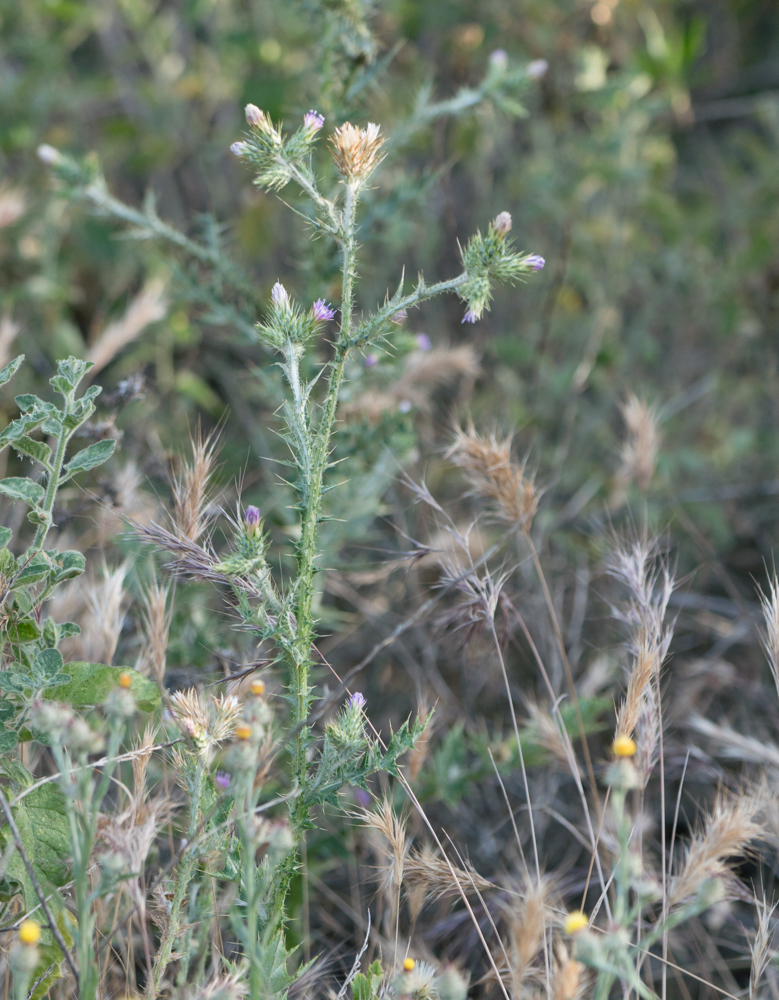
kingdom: Plantae
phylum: Tracheophyta
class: Magnoliopsida
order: Asterales
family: Asteraceae
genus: Carduus
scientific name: Carduus pycnocephalus
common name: Plymouth thistle
